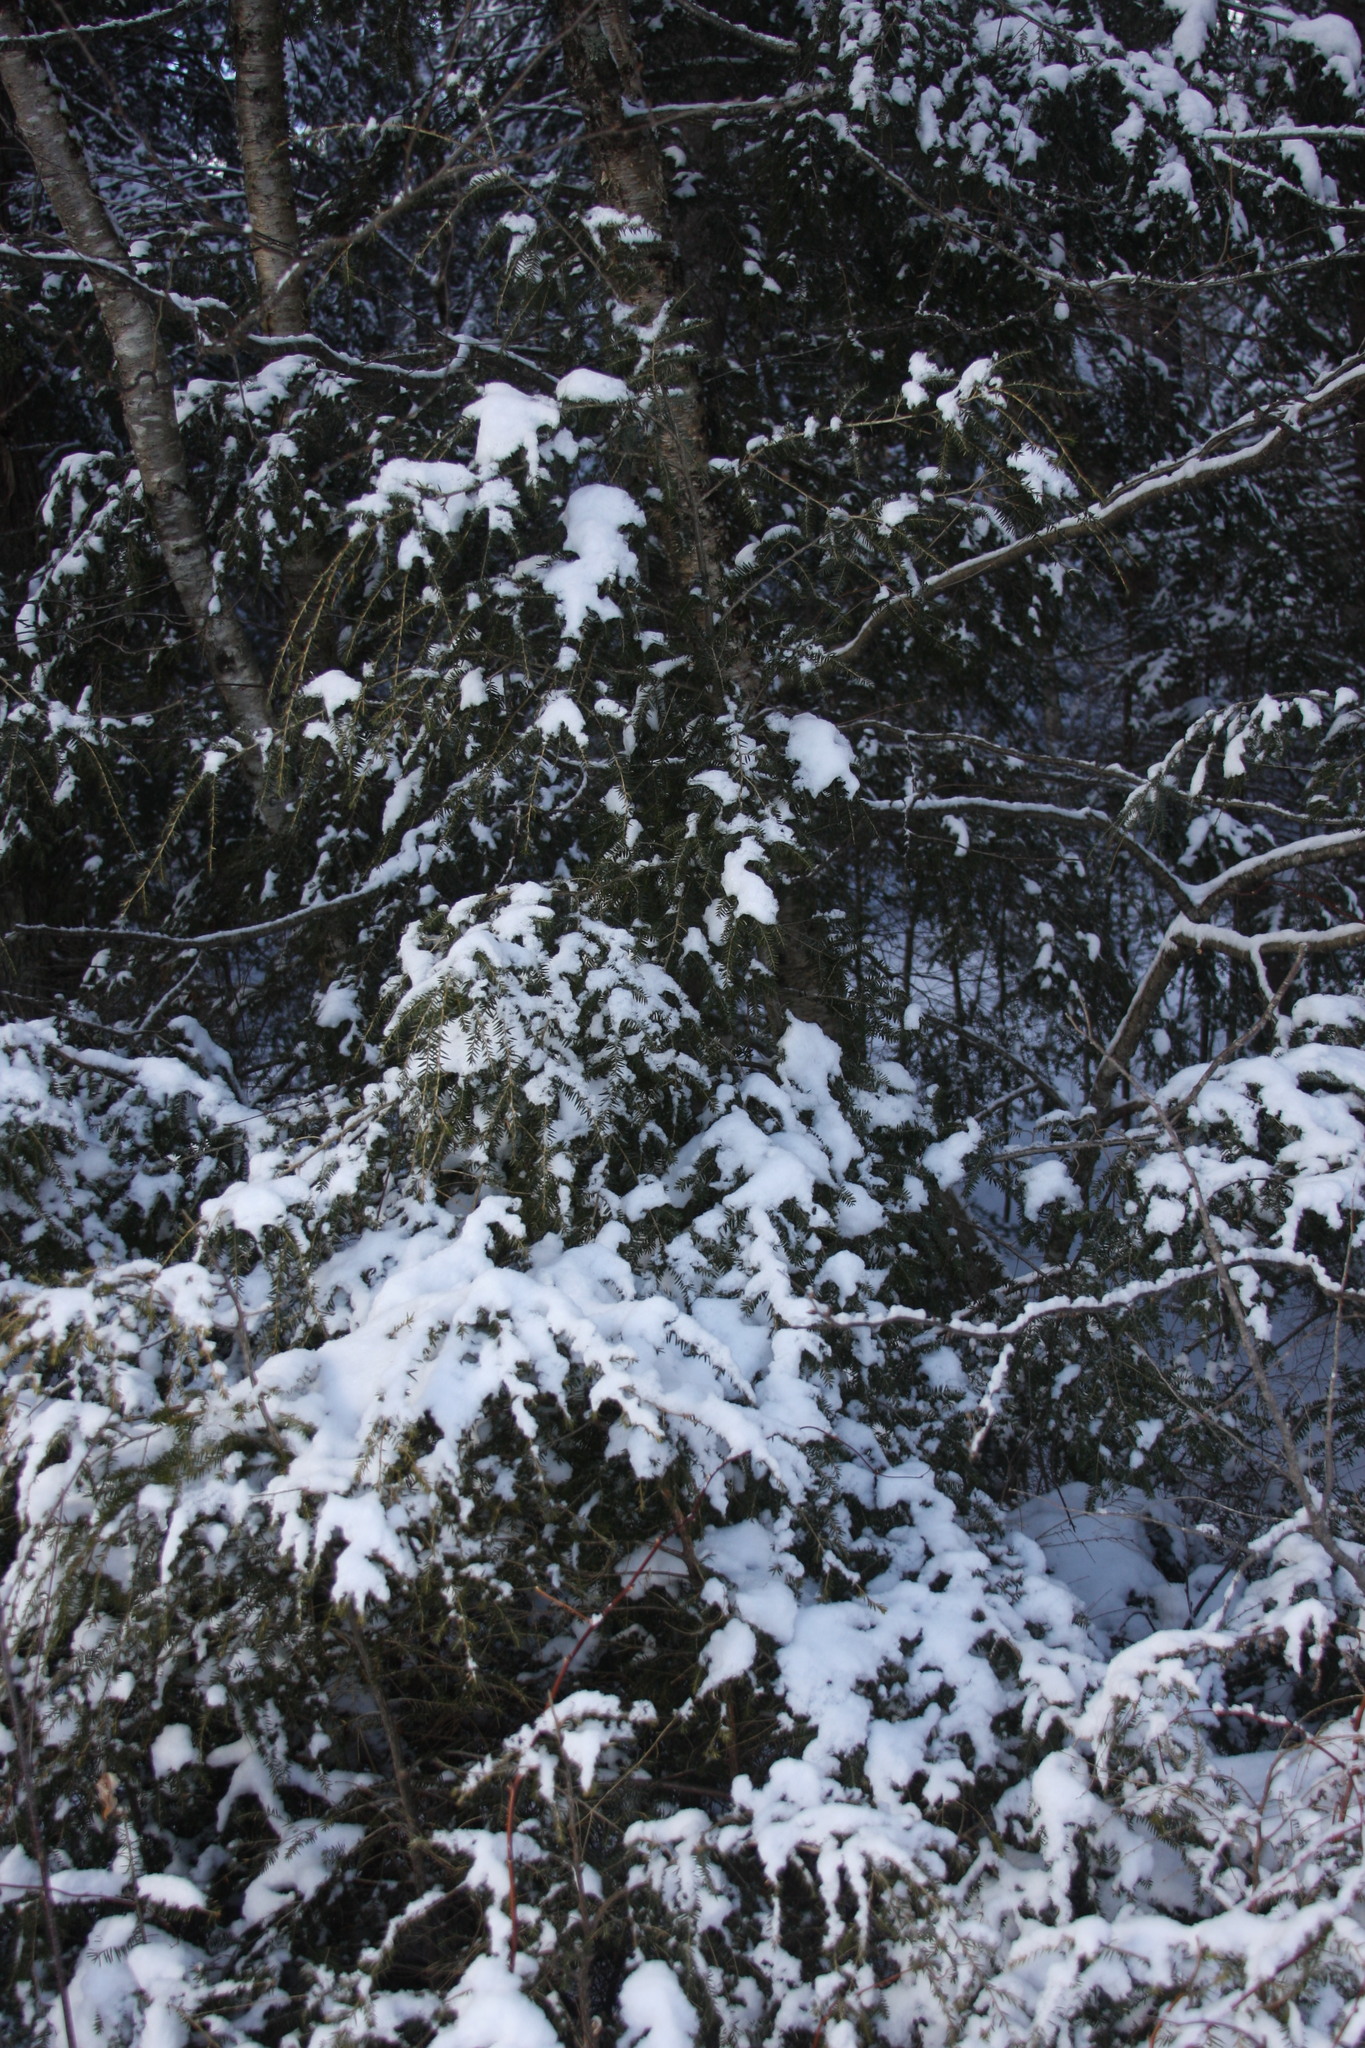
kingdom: Plantae
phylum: Tracheophyta
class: Pinopsida
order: Pinales
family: Pinaceae
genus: Tsuga
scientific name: Tsuga canadensis
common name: Eastern hemlock
